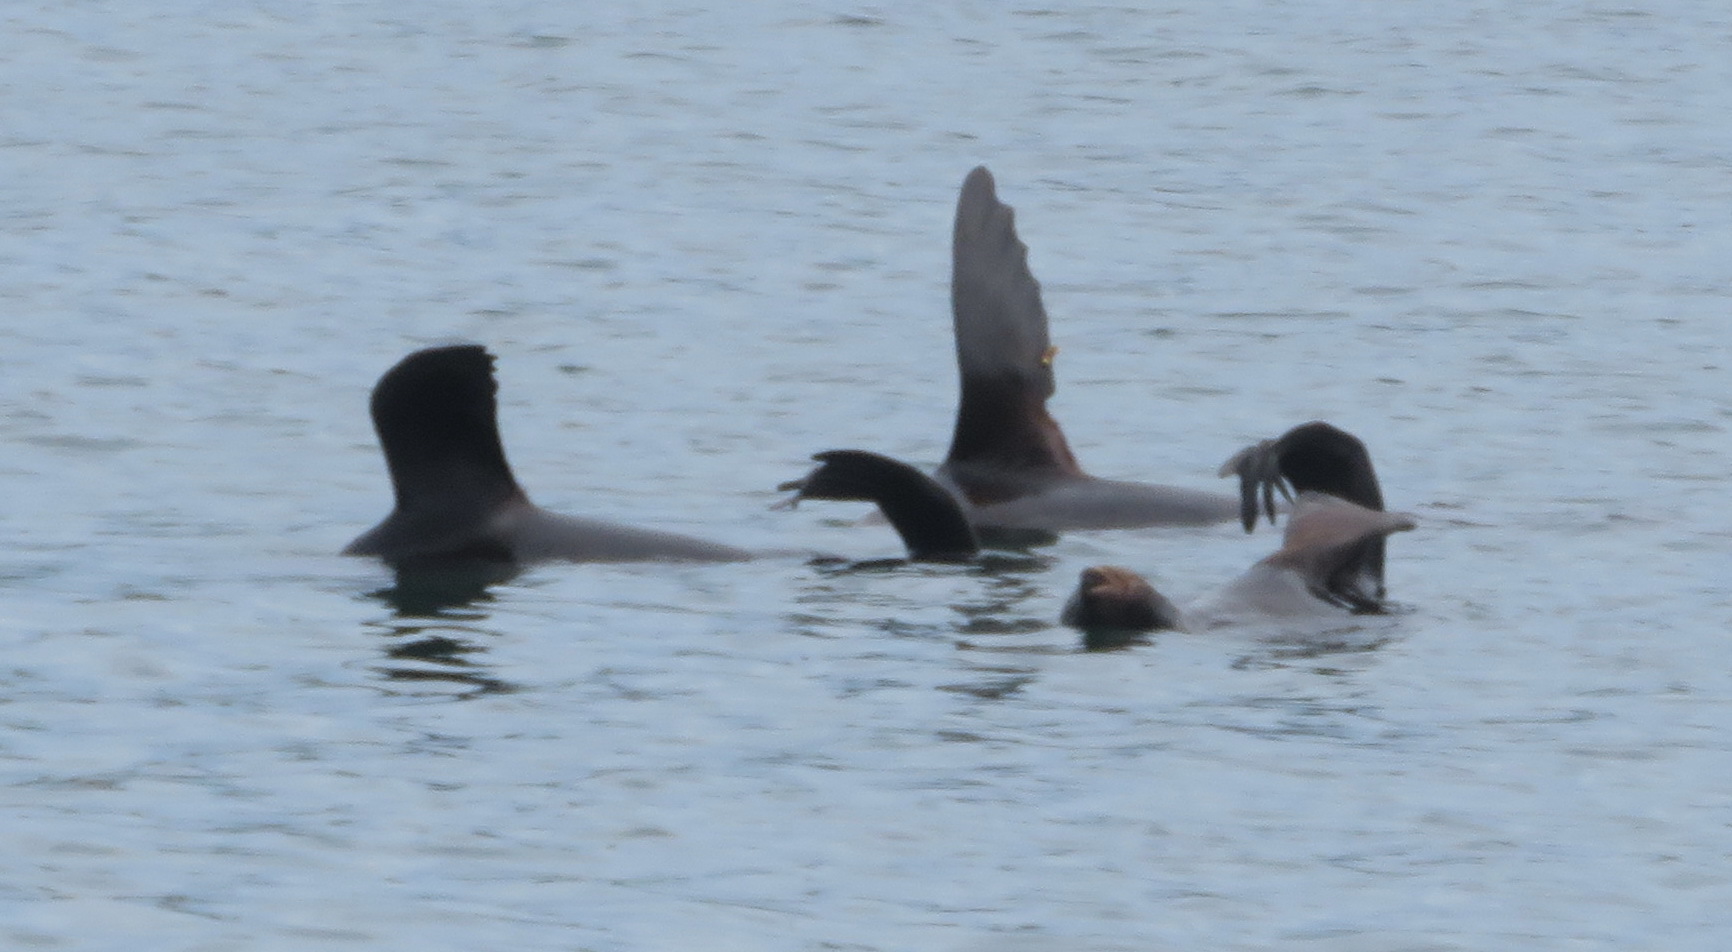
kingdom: Animalia
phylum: Chordata
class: Mammalia
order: Carnivora
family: Otariidae
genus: Arctocephalus
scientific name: Arctocephalus pusillus
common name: Brown fur seal
